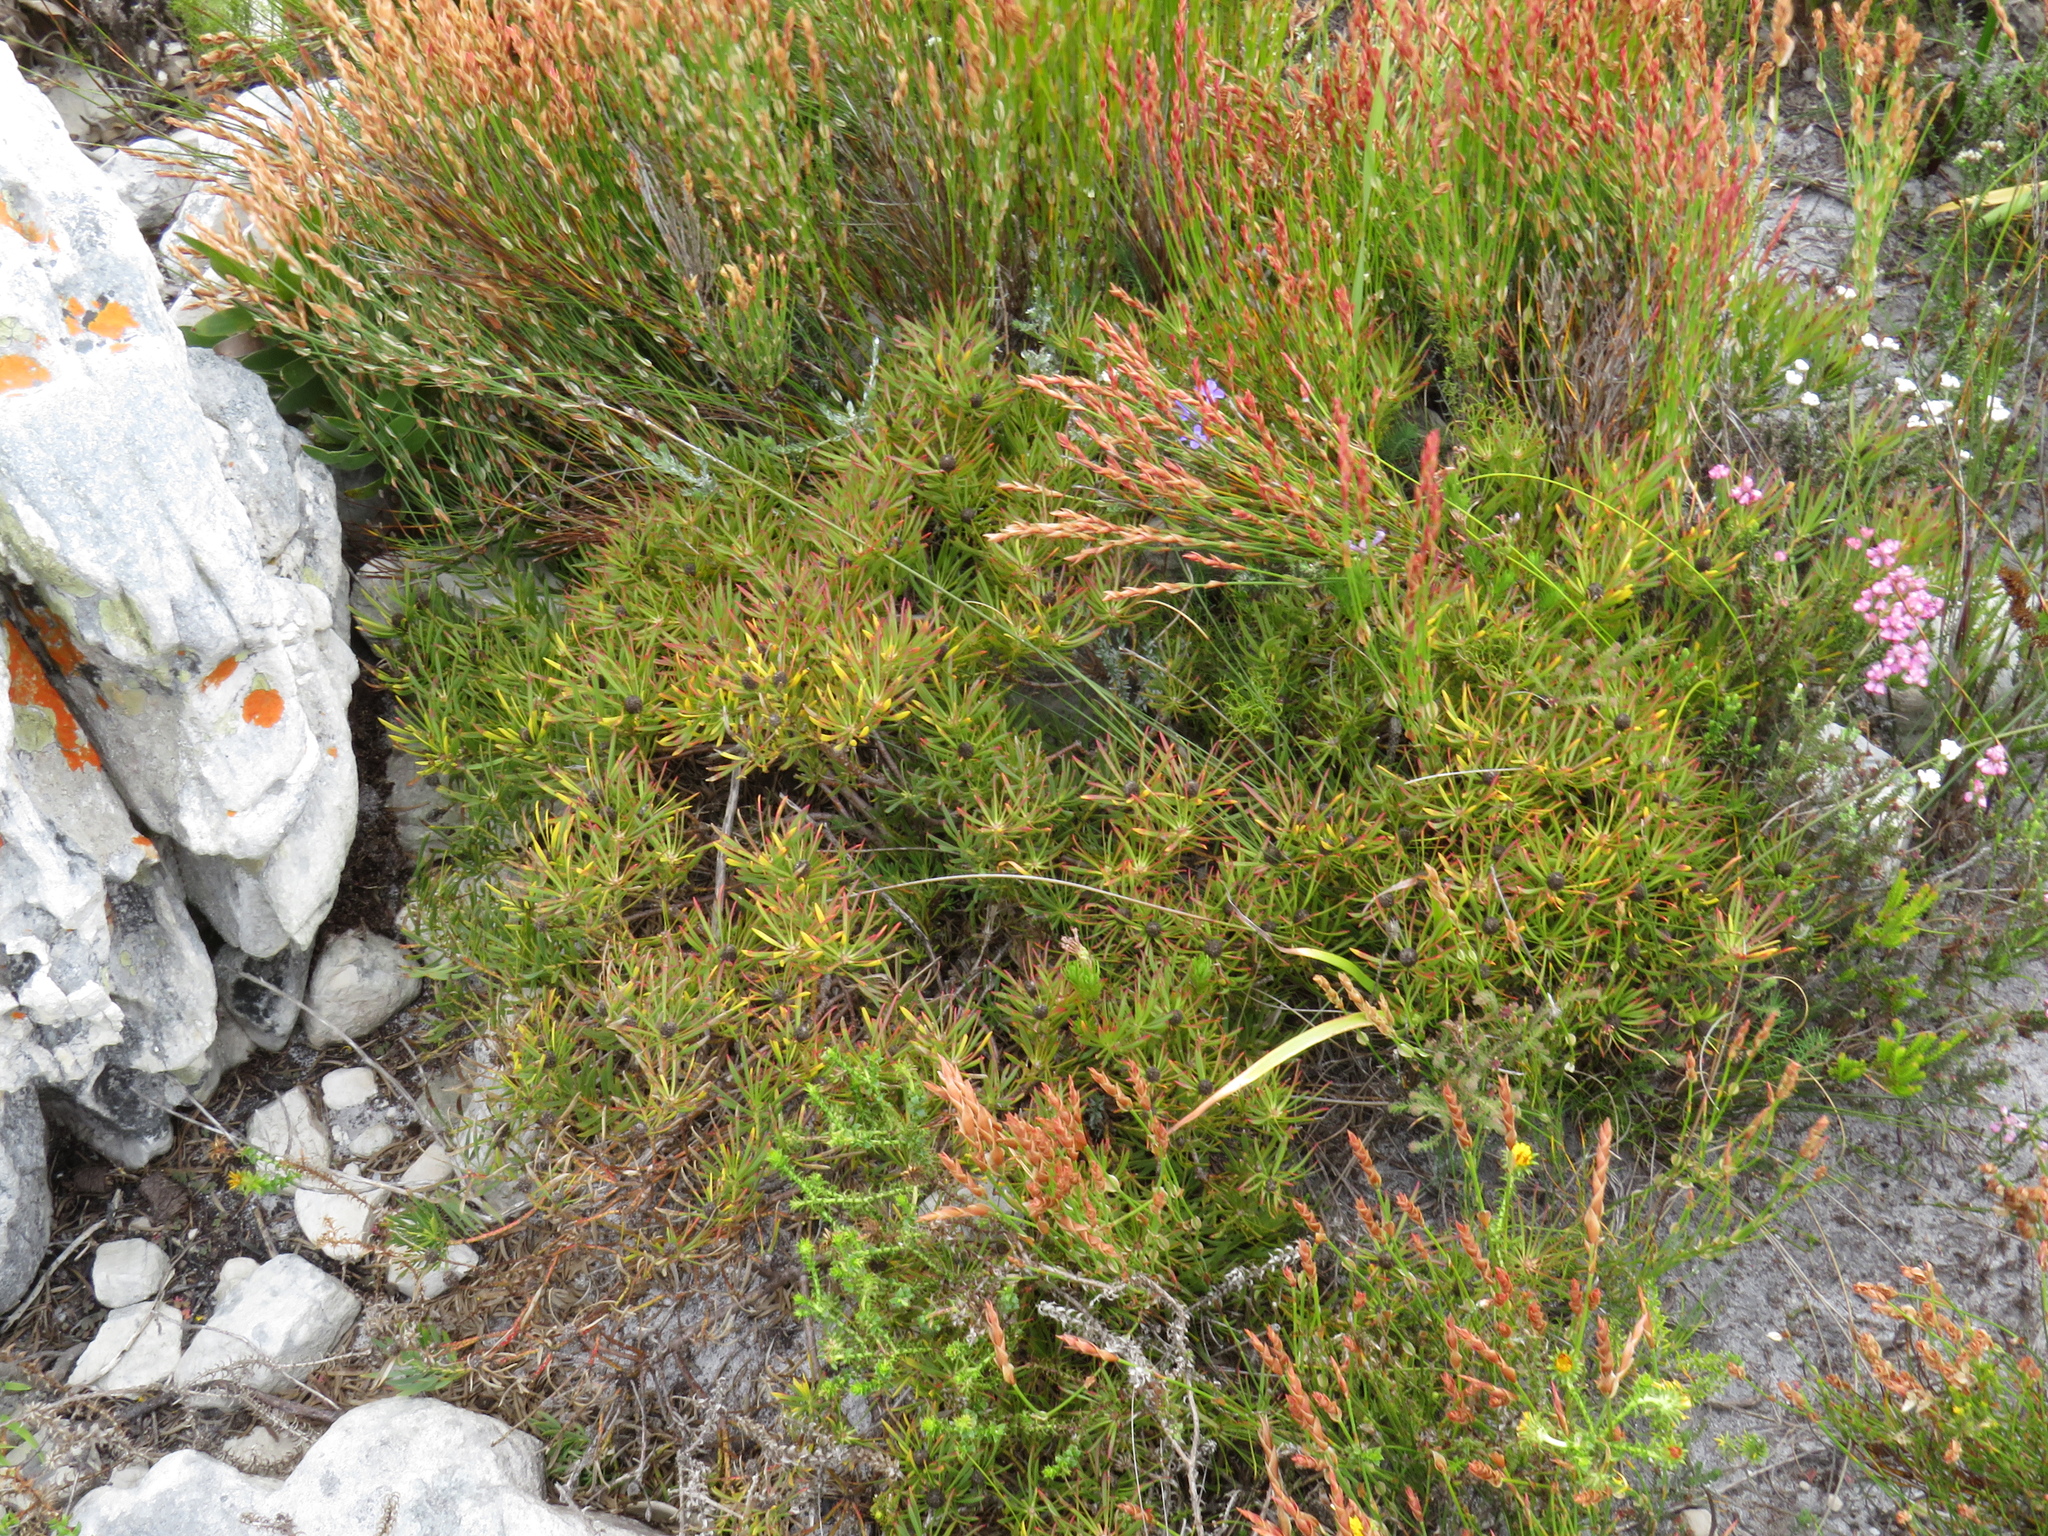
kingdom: Plantae
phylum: Tracheophyta
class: Magnoliopsida
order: Proteales
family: Proteaceae
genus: Leucadendron
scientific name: Leucadendron salignum
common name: Common sunshine conebush
